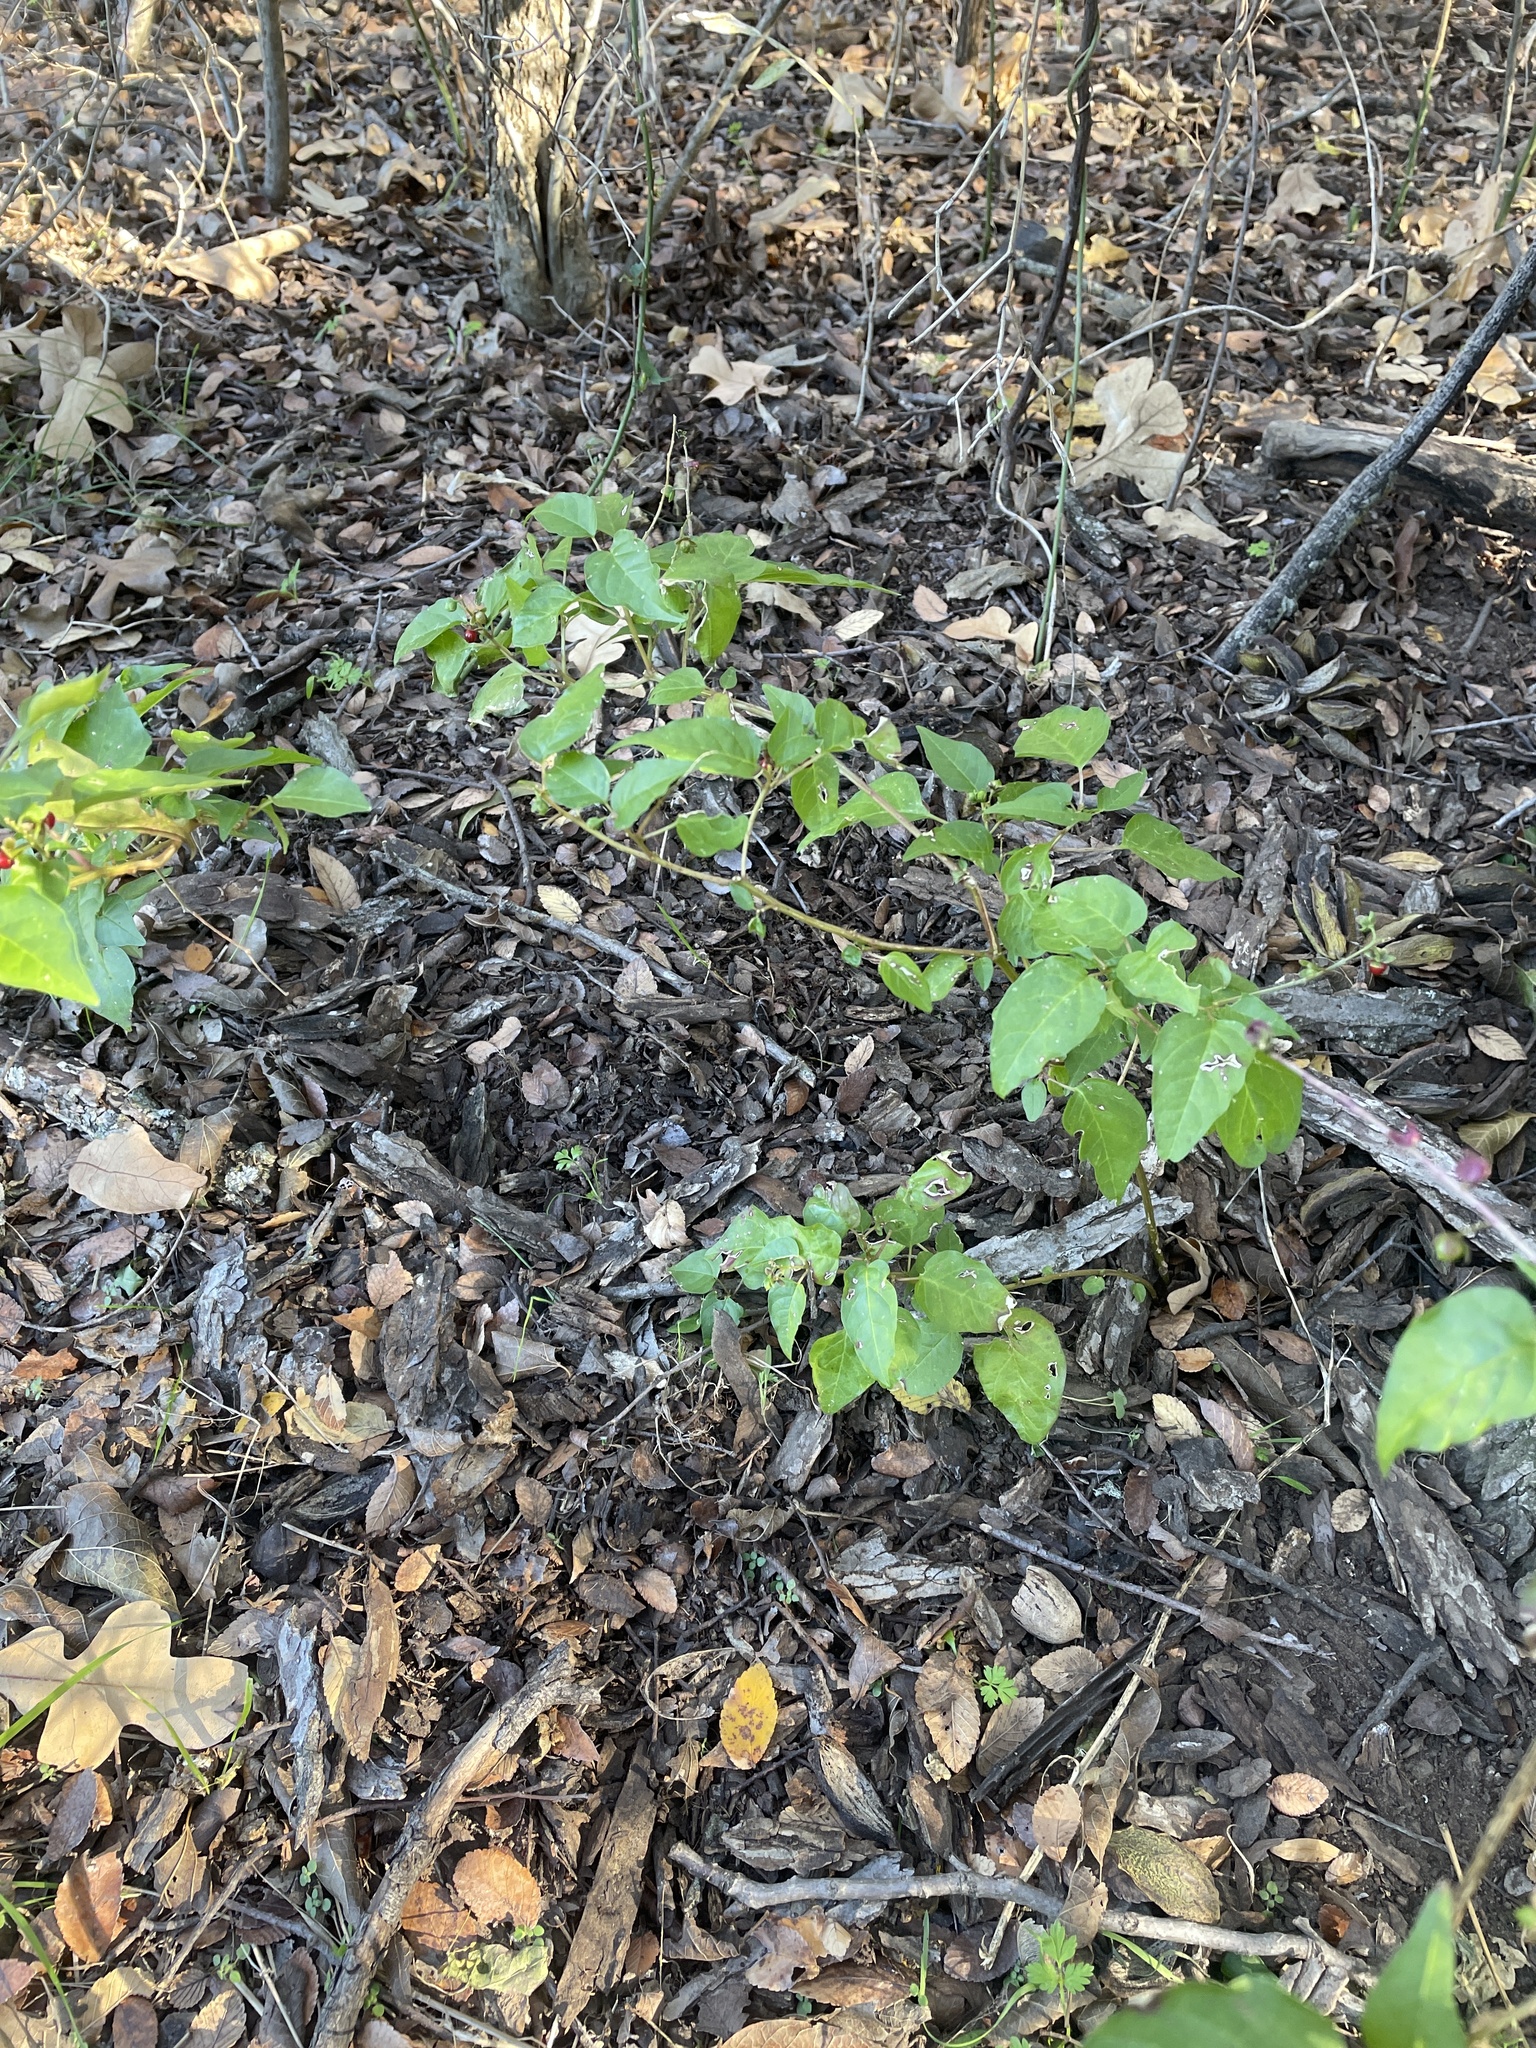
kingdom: Plantae
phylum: Tracheophyta
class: Magnoliopsida
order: Caryophyllales
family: Phytolaccaceae
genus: Rivina
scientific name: Rivina humilis
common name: Rougeplant
